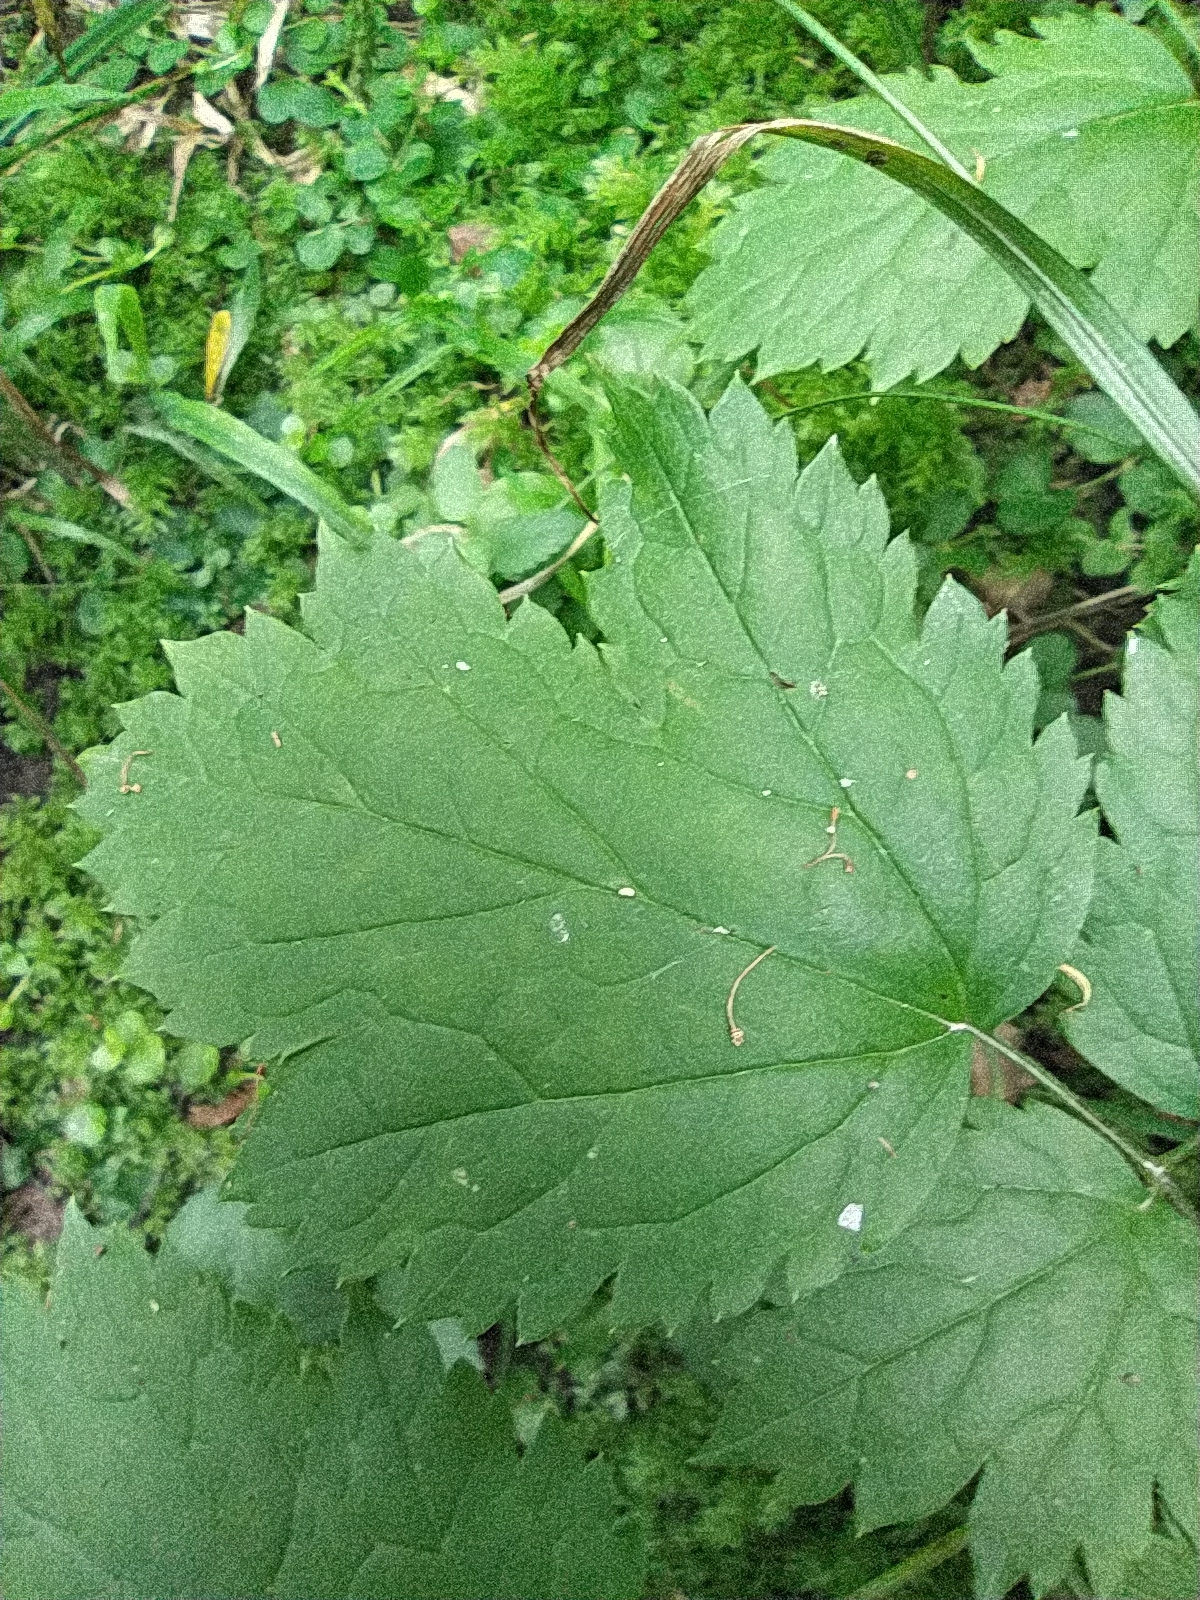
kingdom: Plantae
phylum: Tracheophyta
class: Magnoliopsida
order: Ranunculales
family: Ranunculaceae
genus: Actaea
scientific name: Actaea spicata
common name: Baneberry
